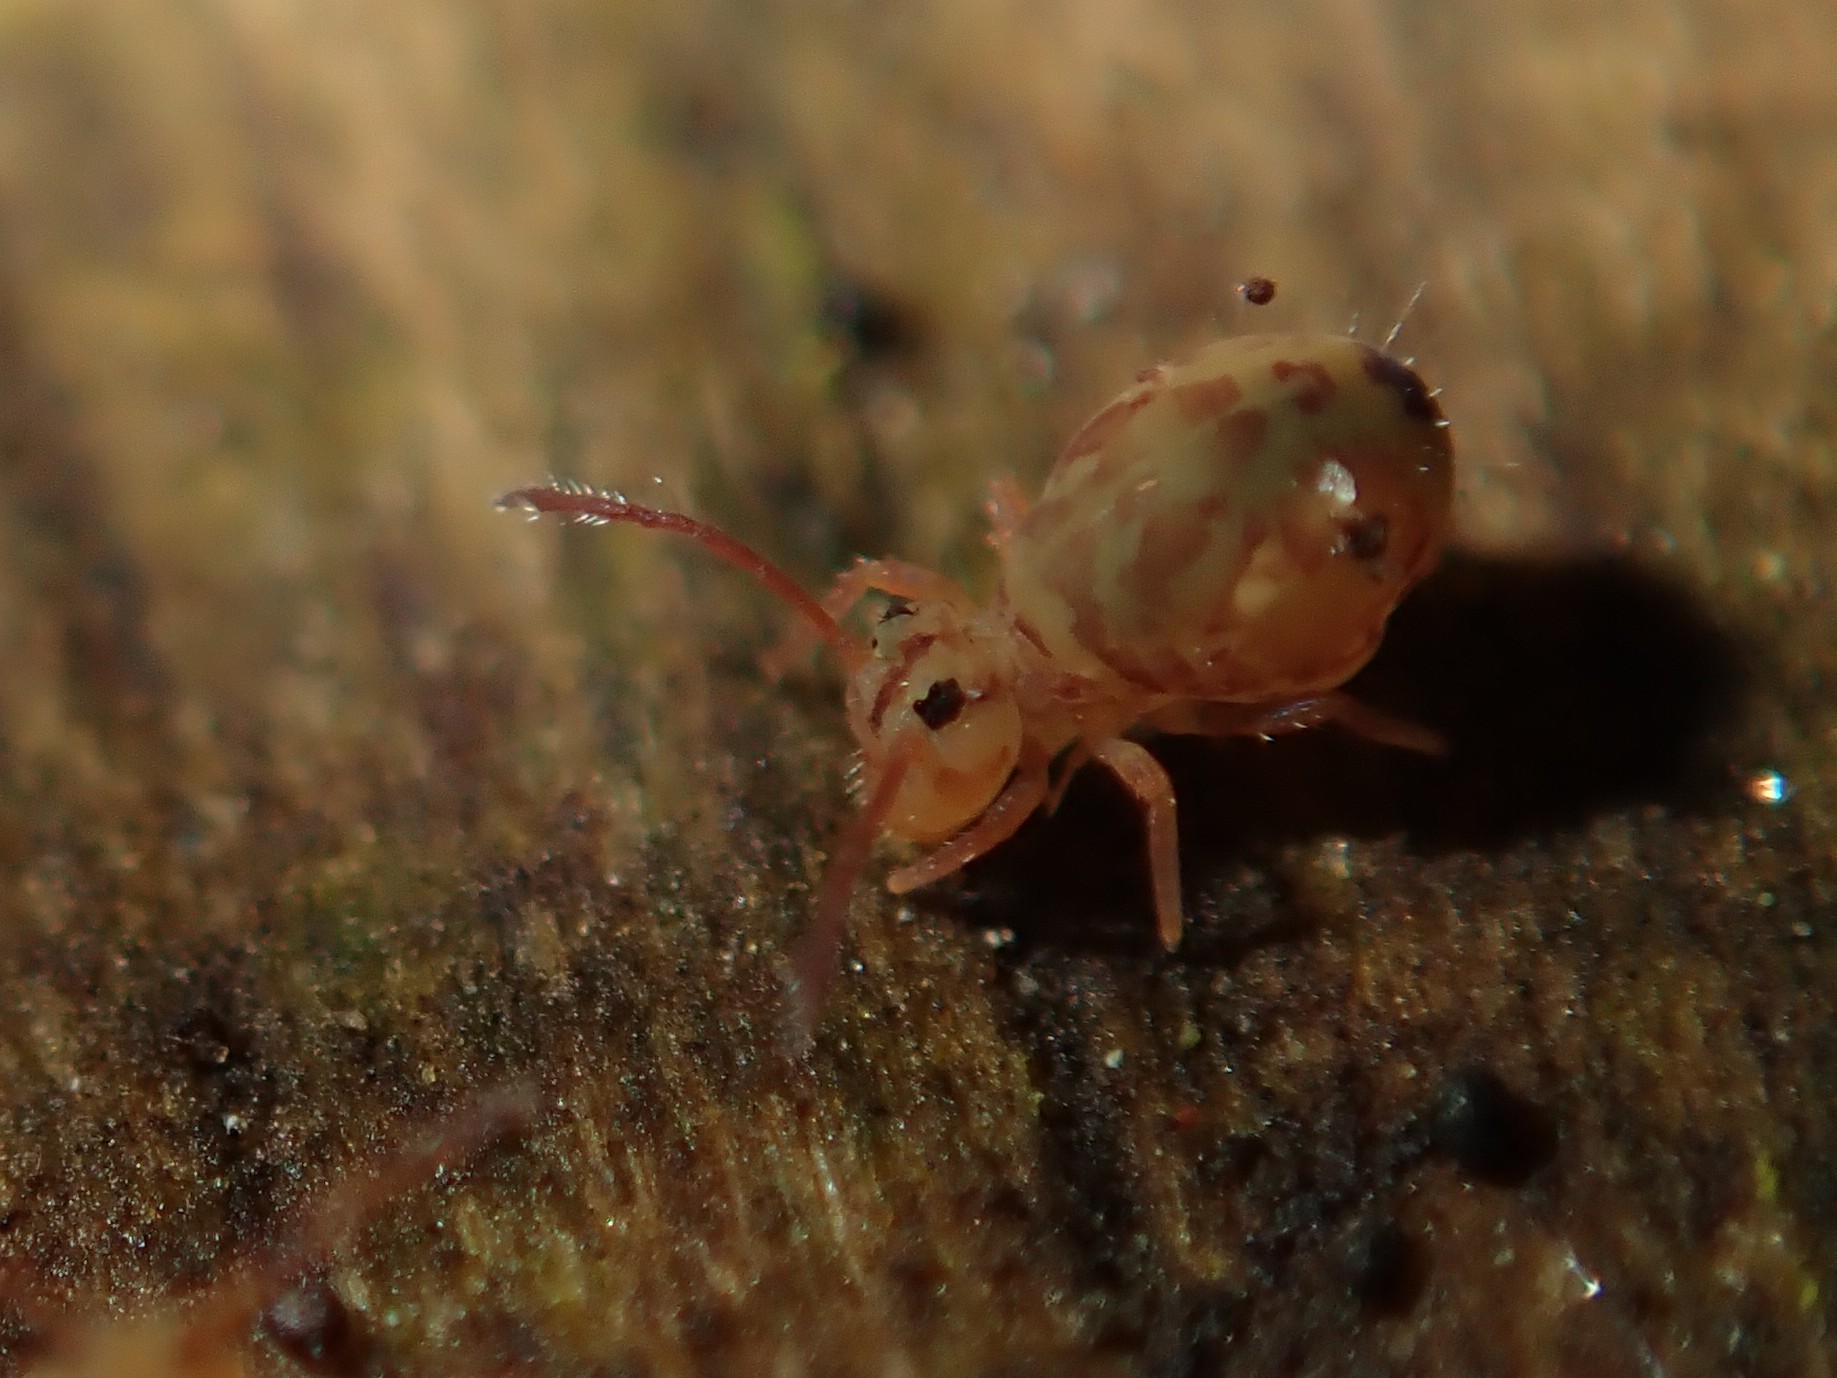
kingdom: Animalia
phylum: Arthropoda
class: Collembola
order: Symphypleona
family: Dicyrtomidae
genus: Dicyrtomina
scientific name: Dicyrtomina ornata
